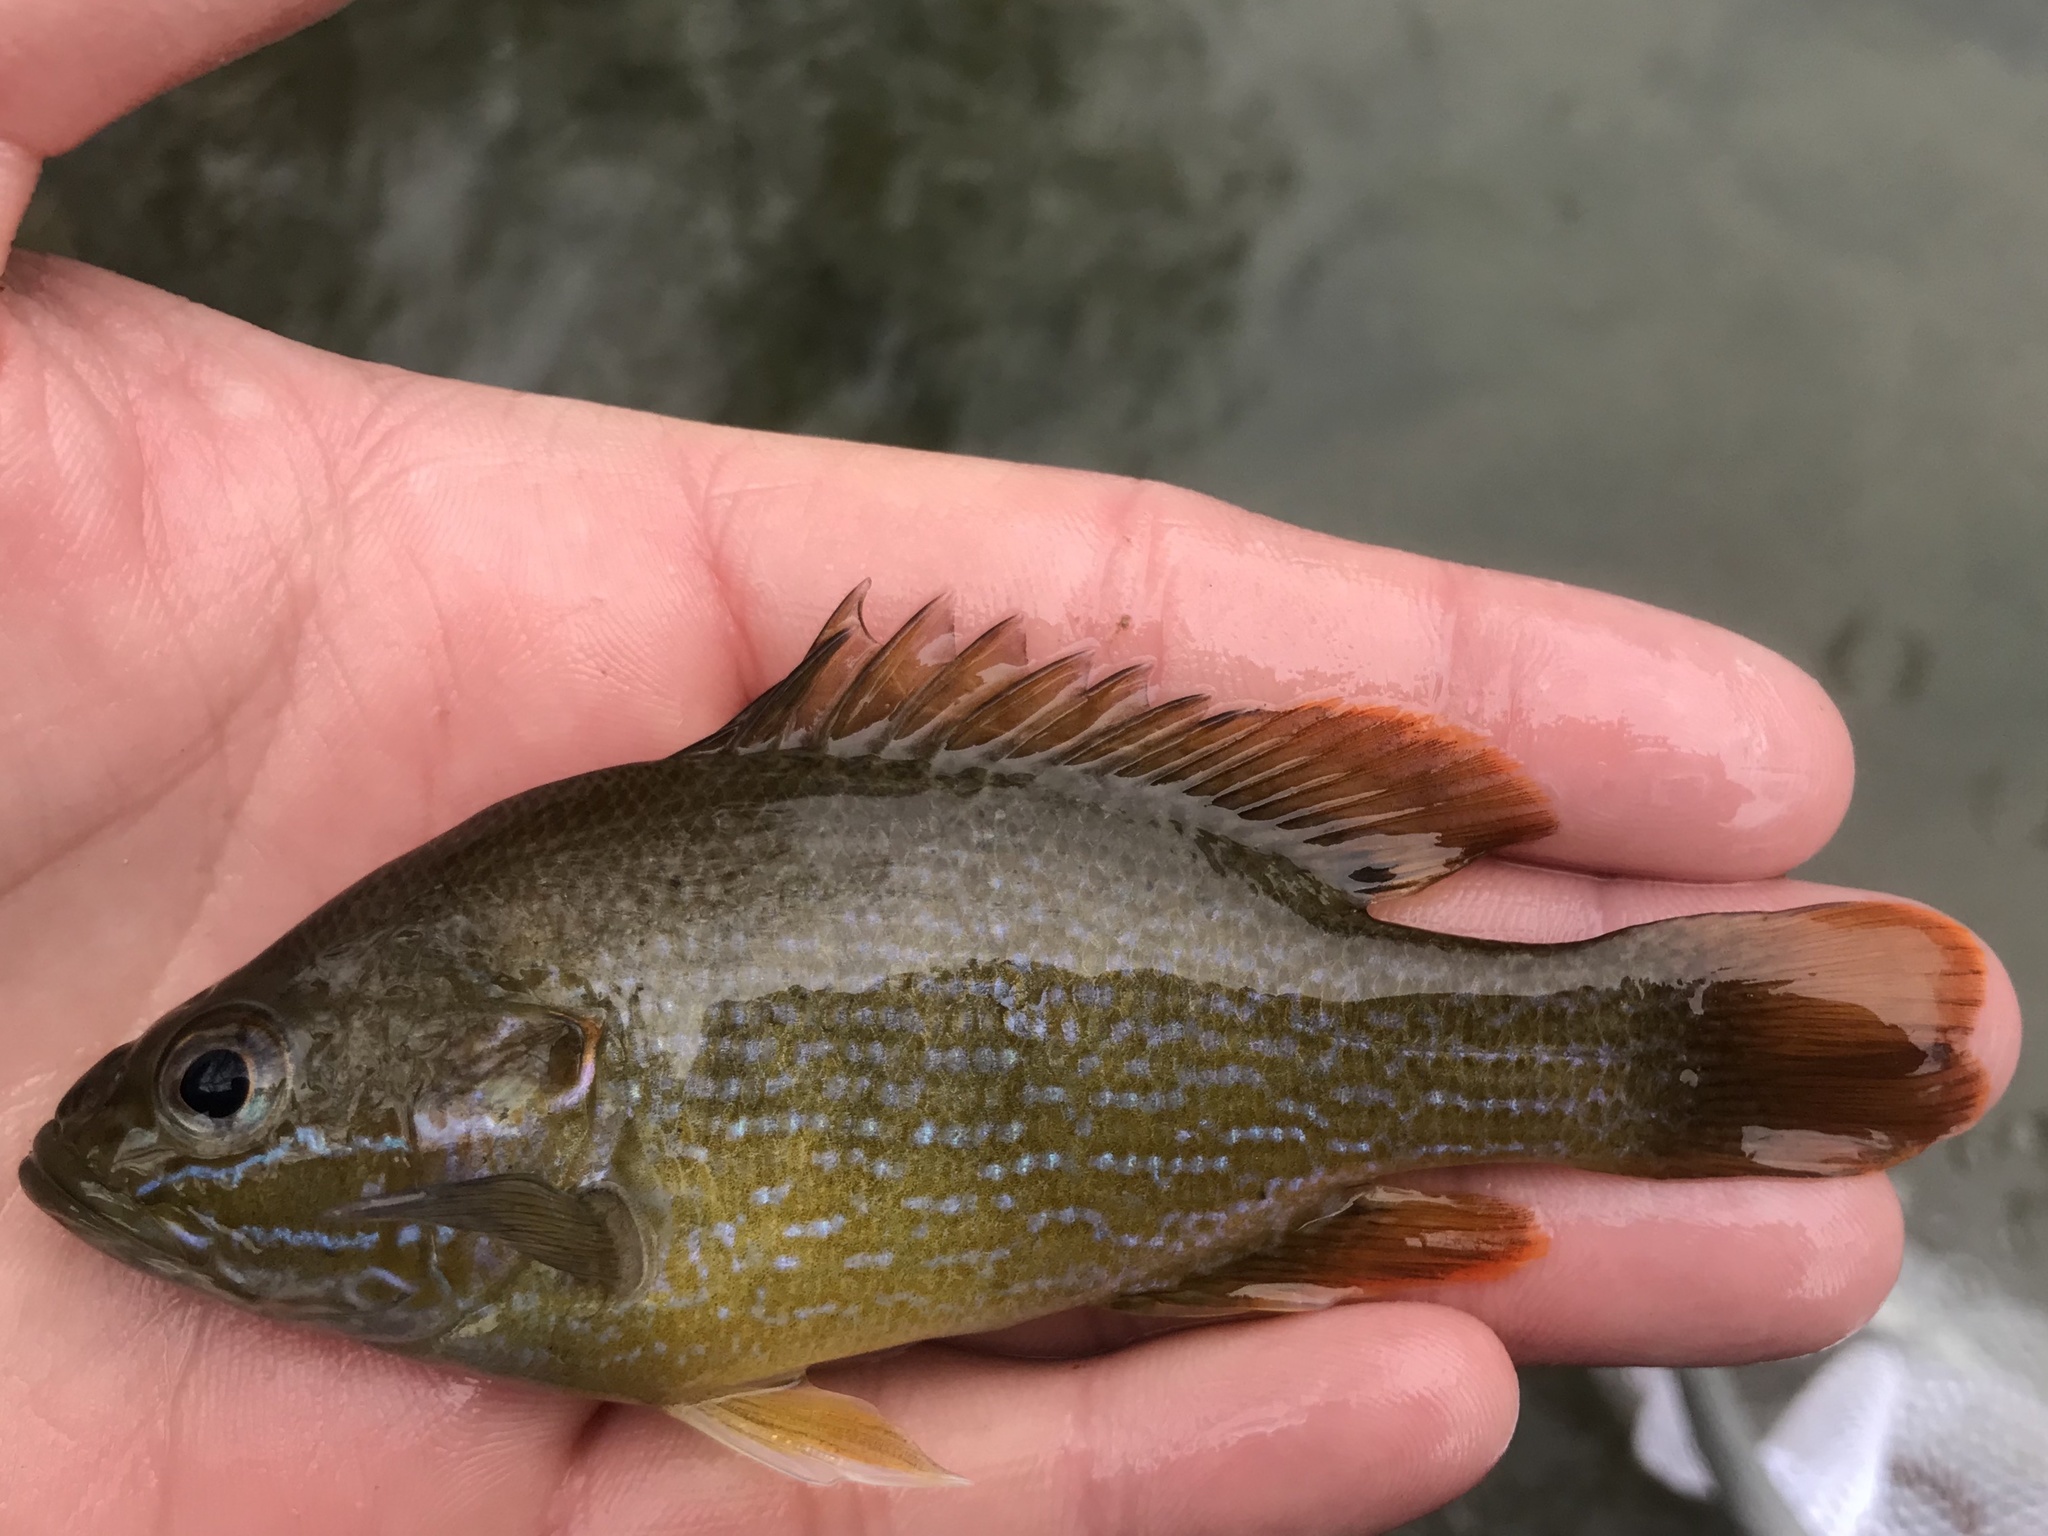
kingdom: Animalia
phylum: Chordata
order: Perciformes
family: Centrarchidae
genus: Lepomis
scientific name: Lepomis cyanellus
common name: Green sunfish
